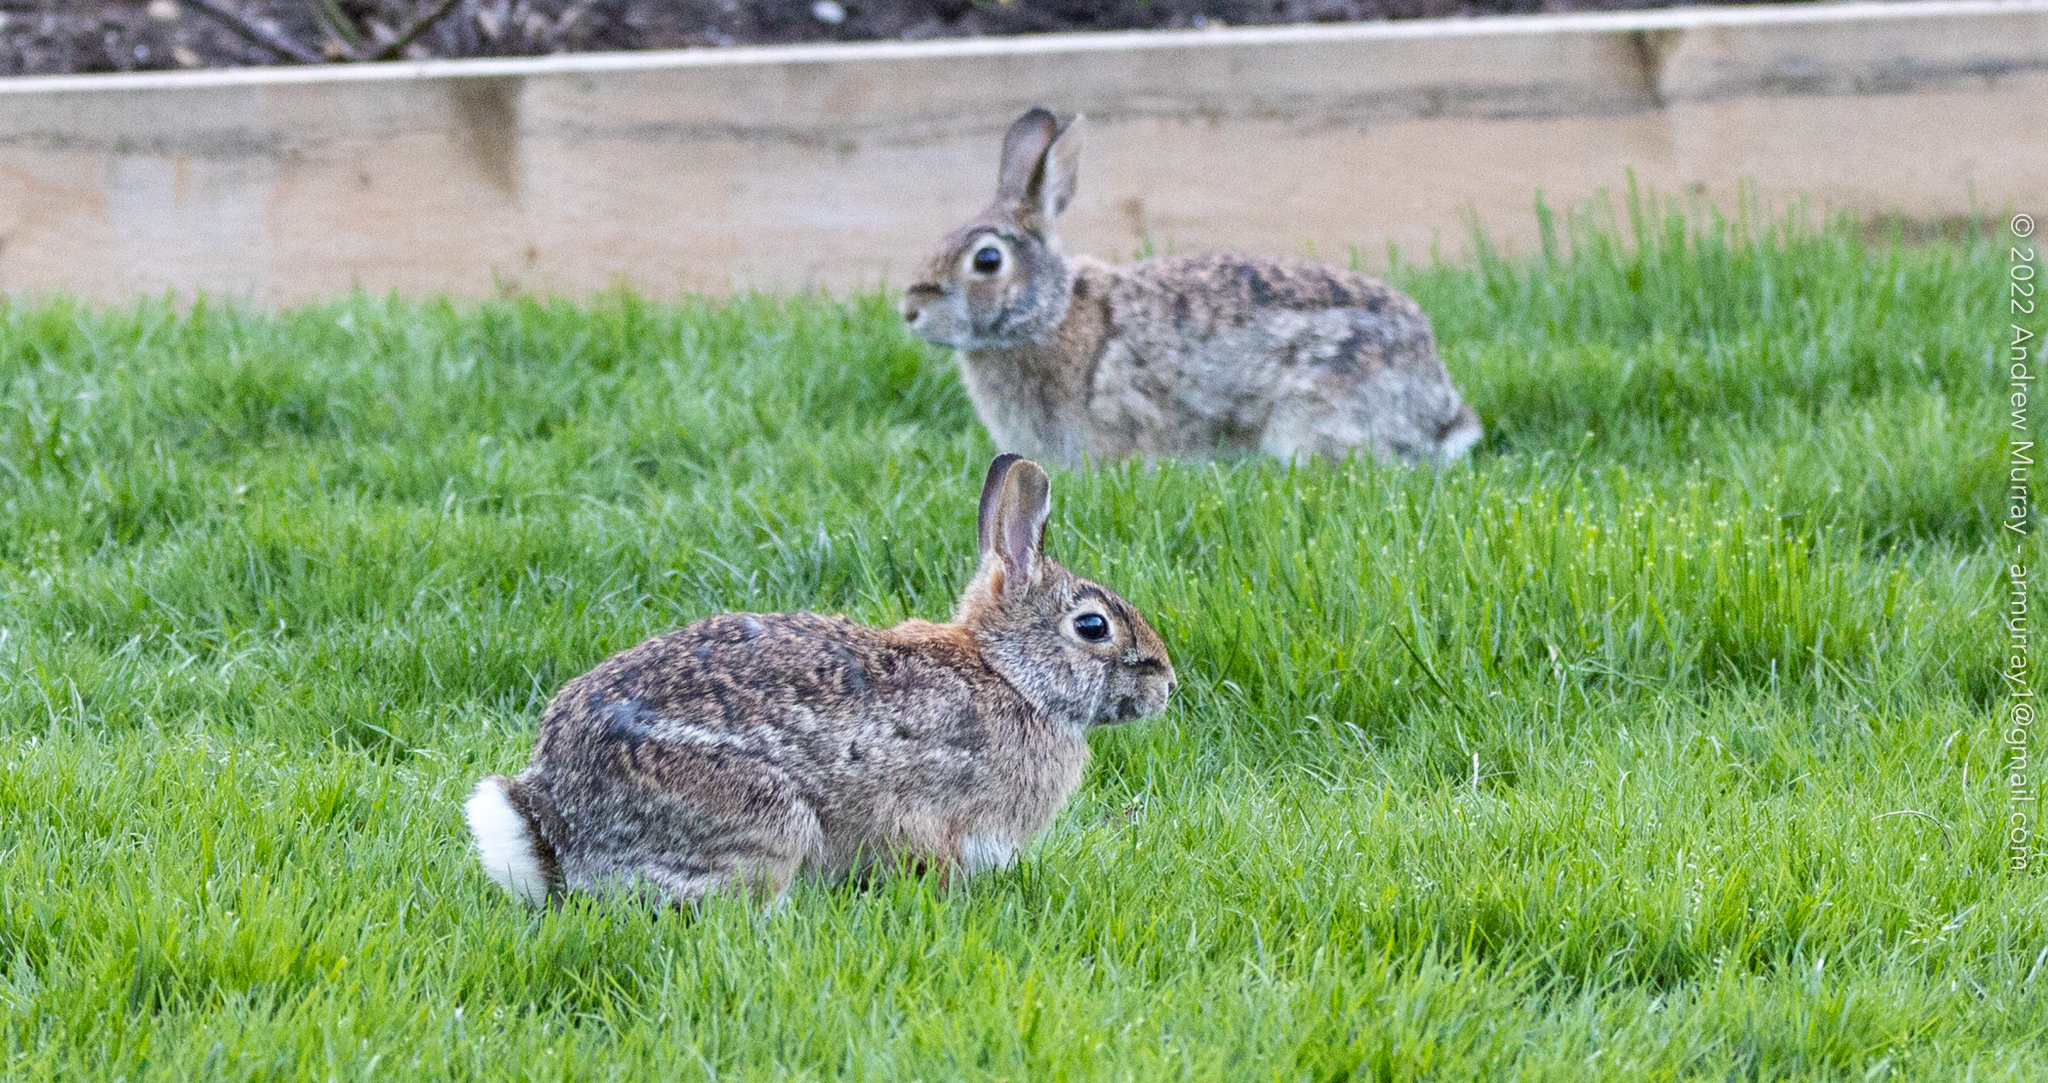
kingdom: Animalia
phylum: Chordata
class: Mammalia
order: Lagomorpha
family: Leporidae
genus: Sylvilagus
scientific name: Sylvilagus floridanus
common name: Eastern cottontail
